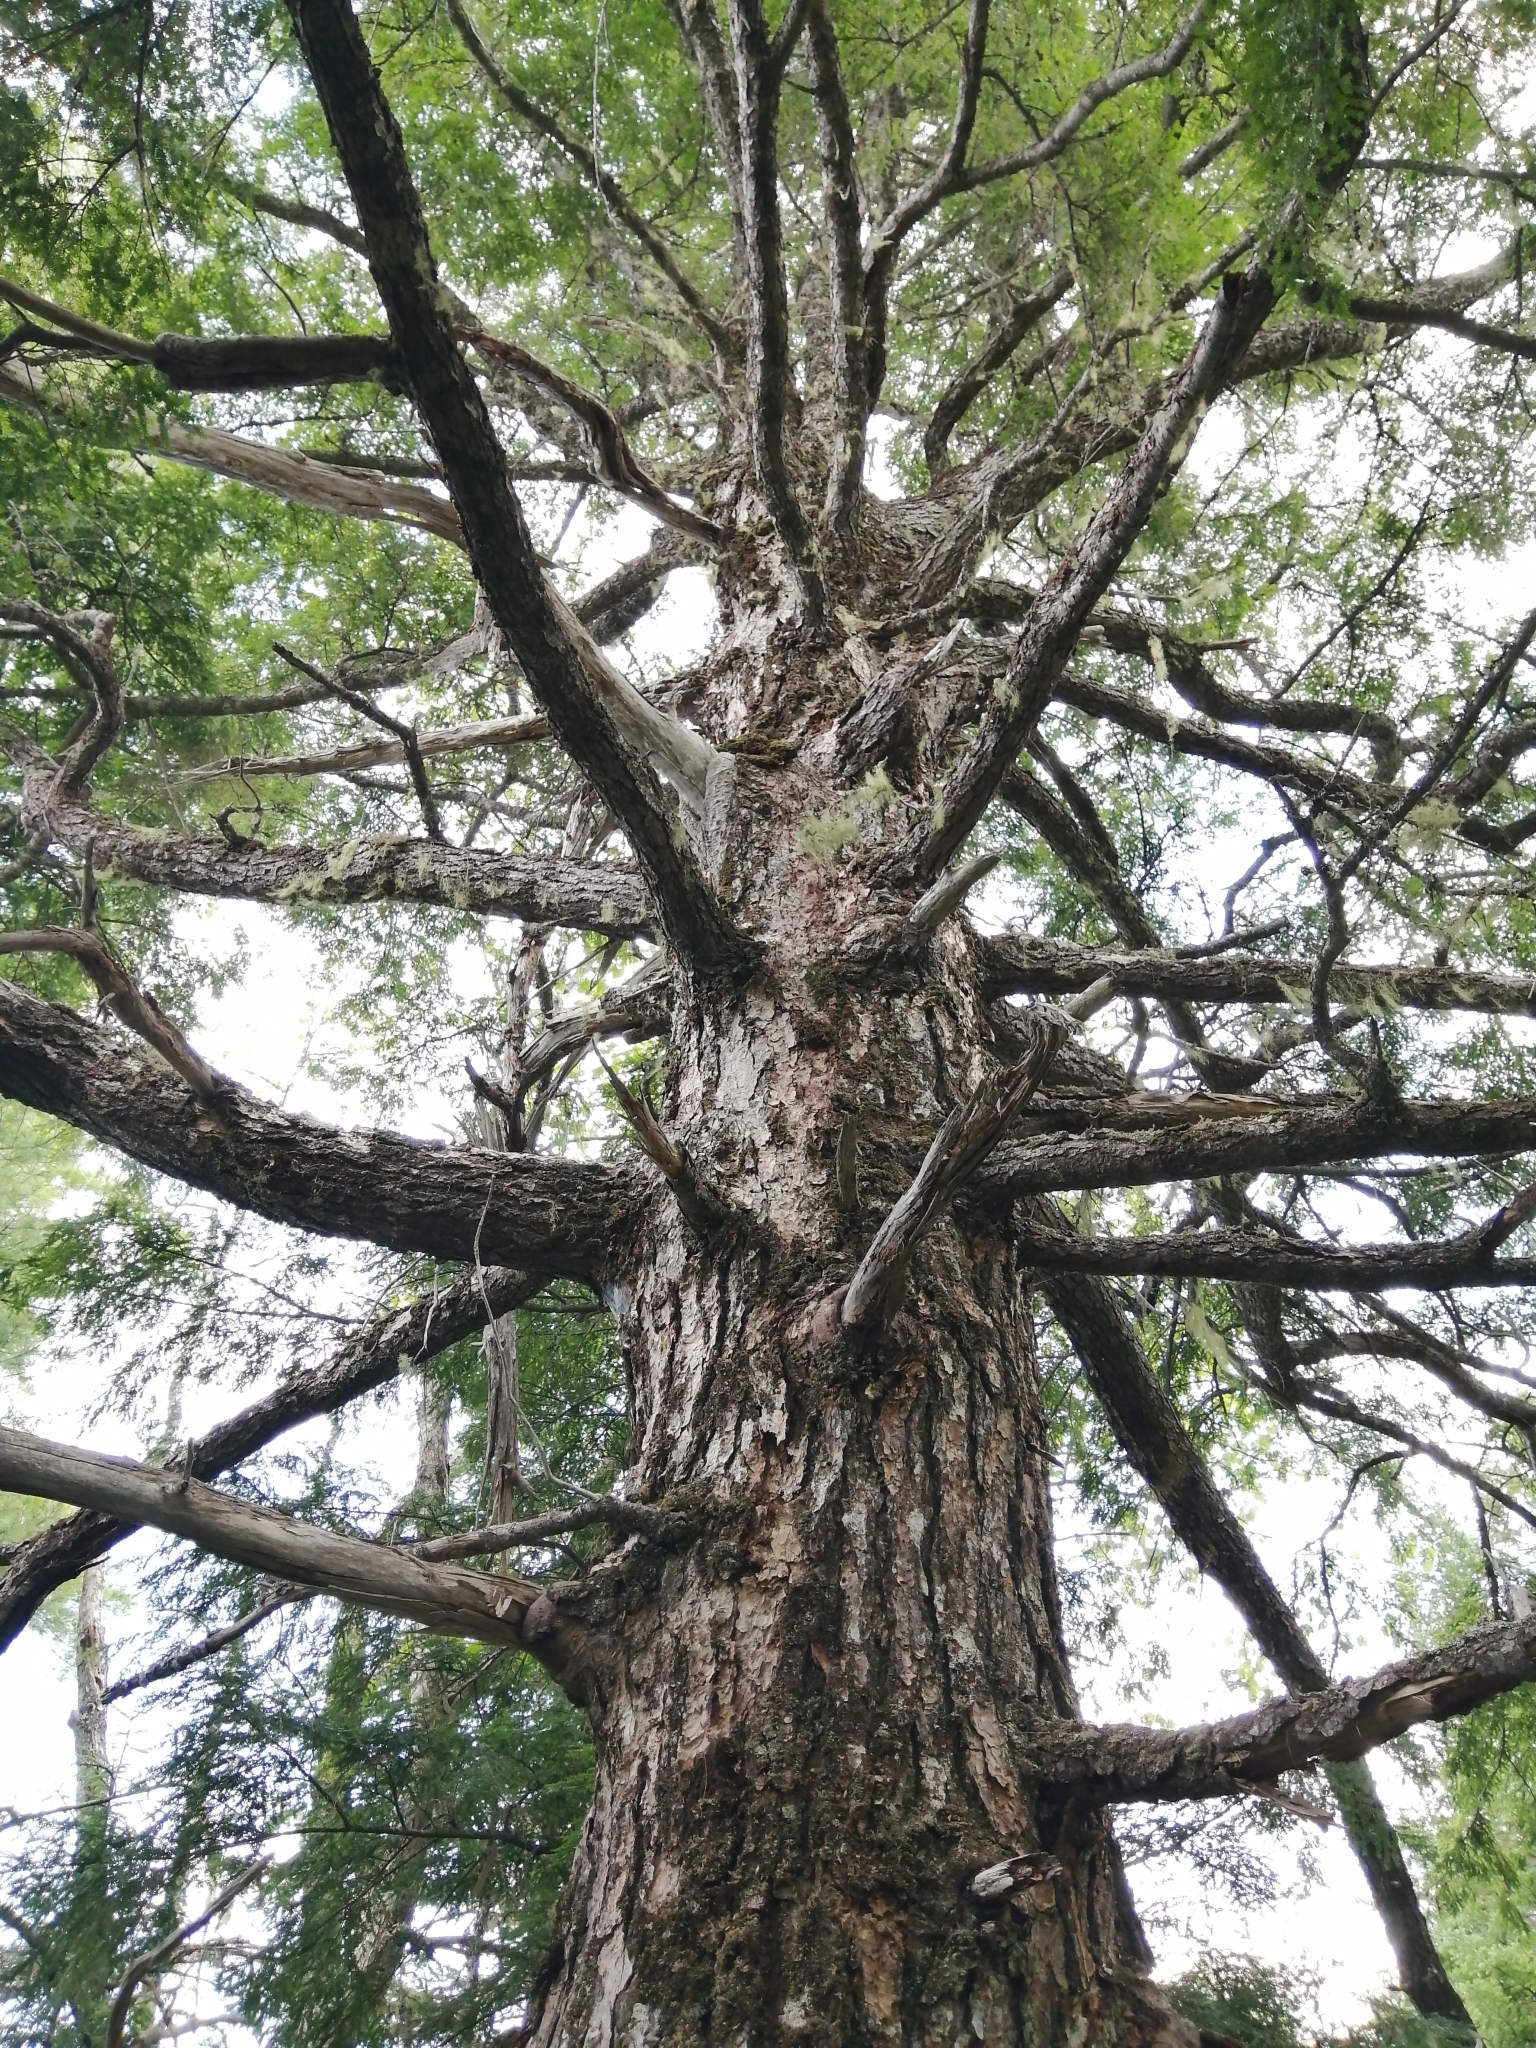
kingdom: Plantae
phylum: Tracheophyta
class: Pinopsida
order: Pinales
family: Pinaceae
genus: Tsuga
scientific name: Tsuga canadensis
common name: Eastern hemlock
